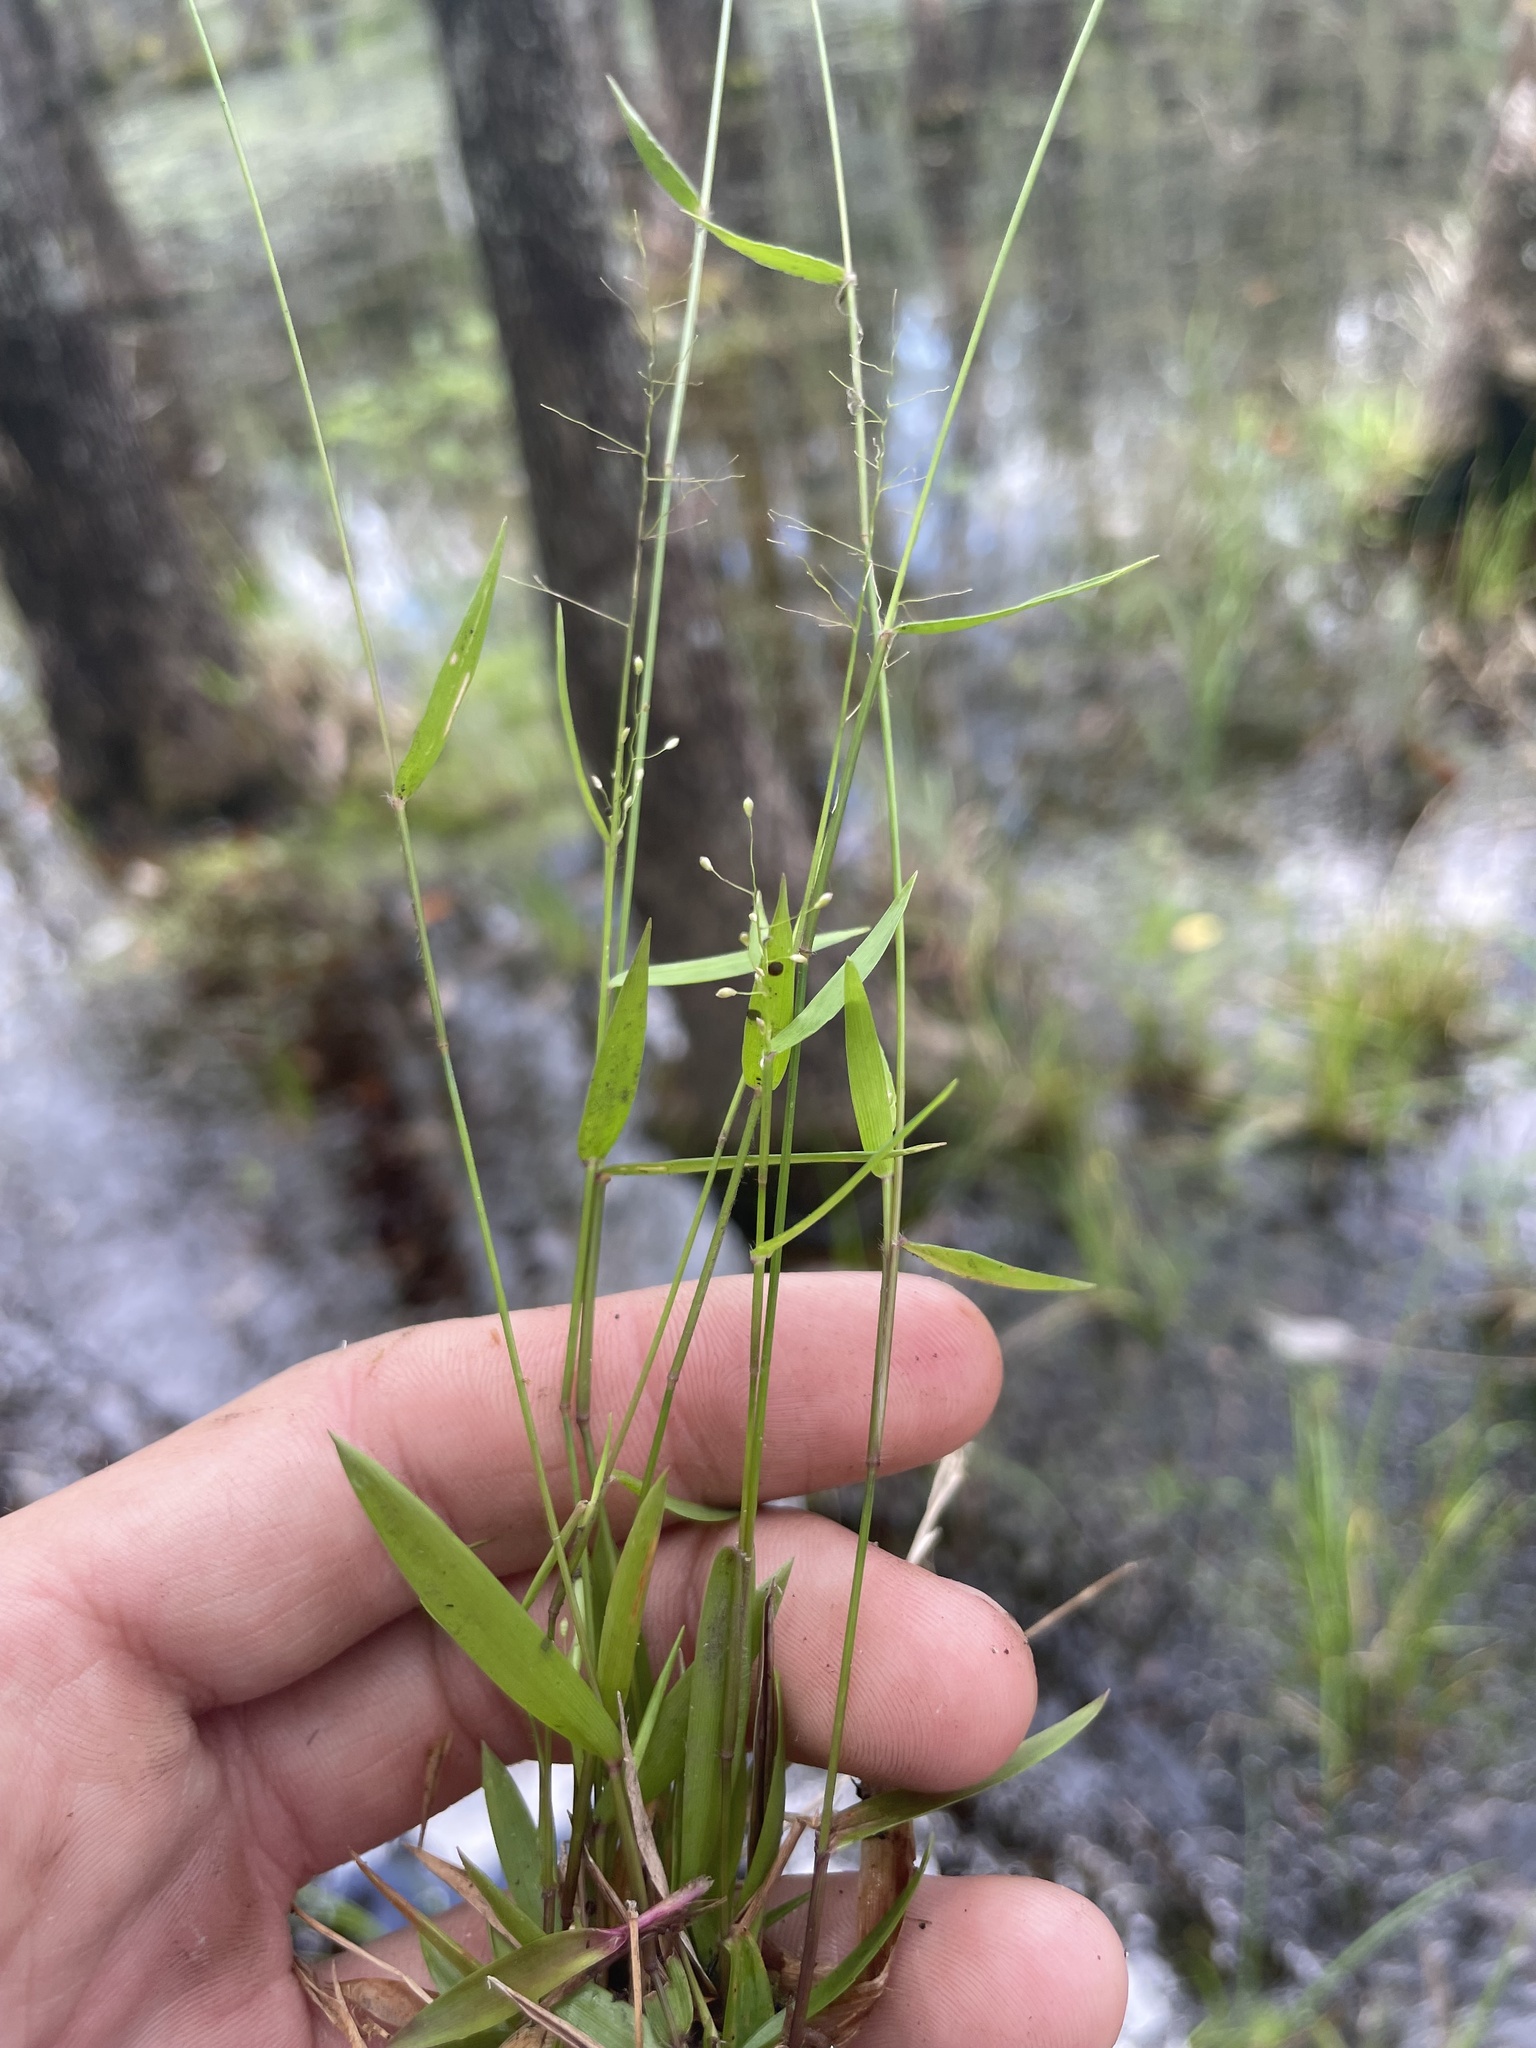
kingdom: Plantae
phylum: Tracheophyta
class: Liliopsida
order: Poales
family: Poaceae
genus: Dichanthelium
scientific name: Dichanthelium tenue
